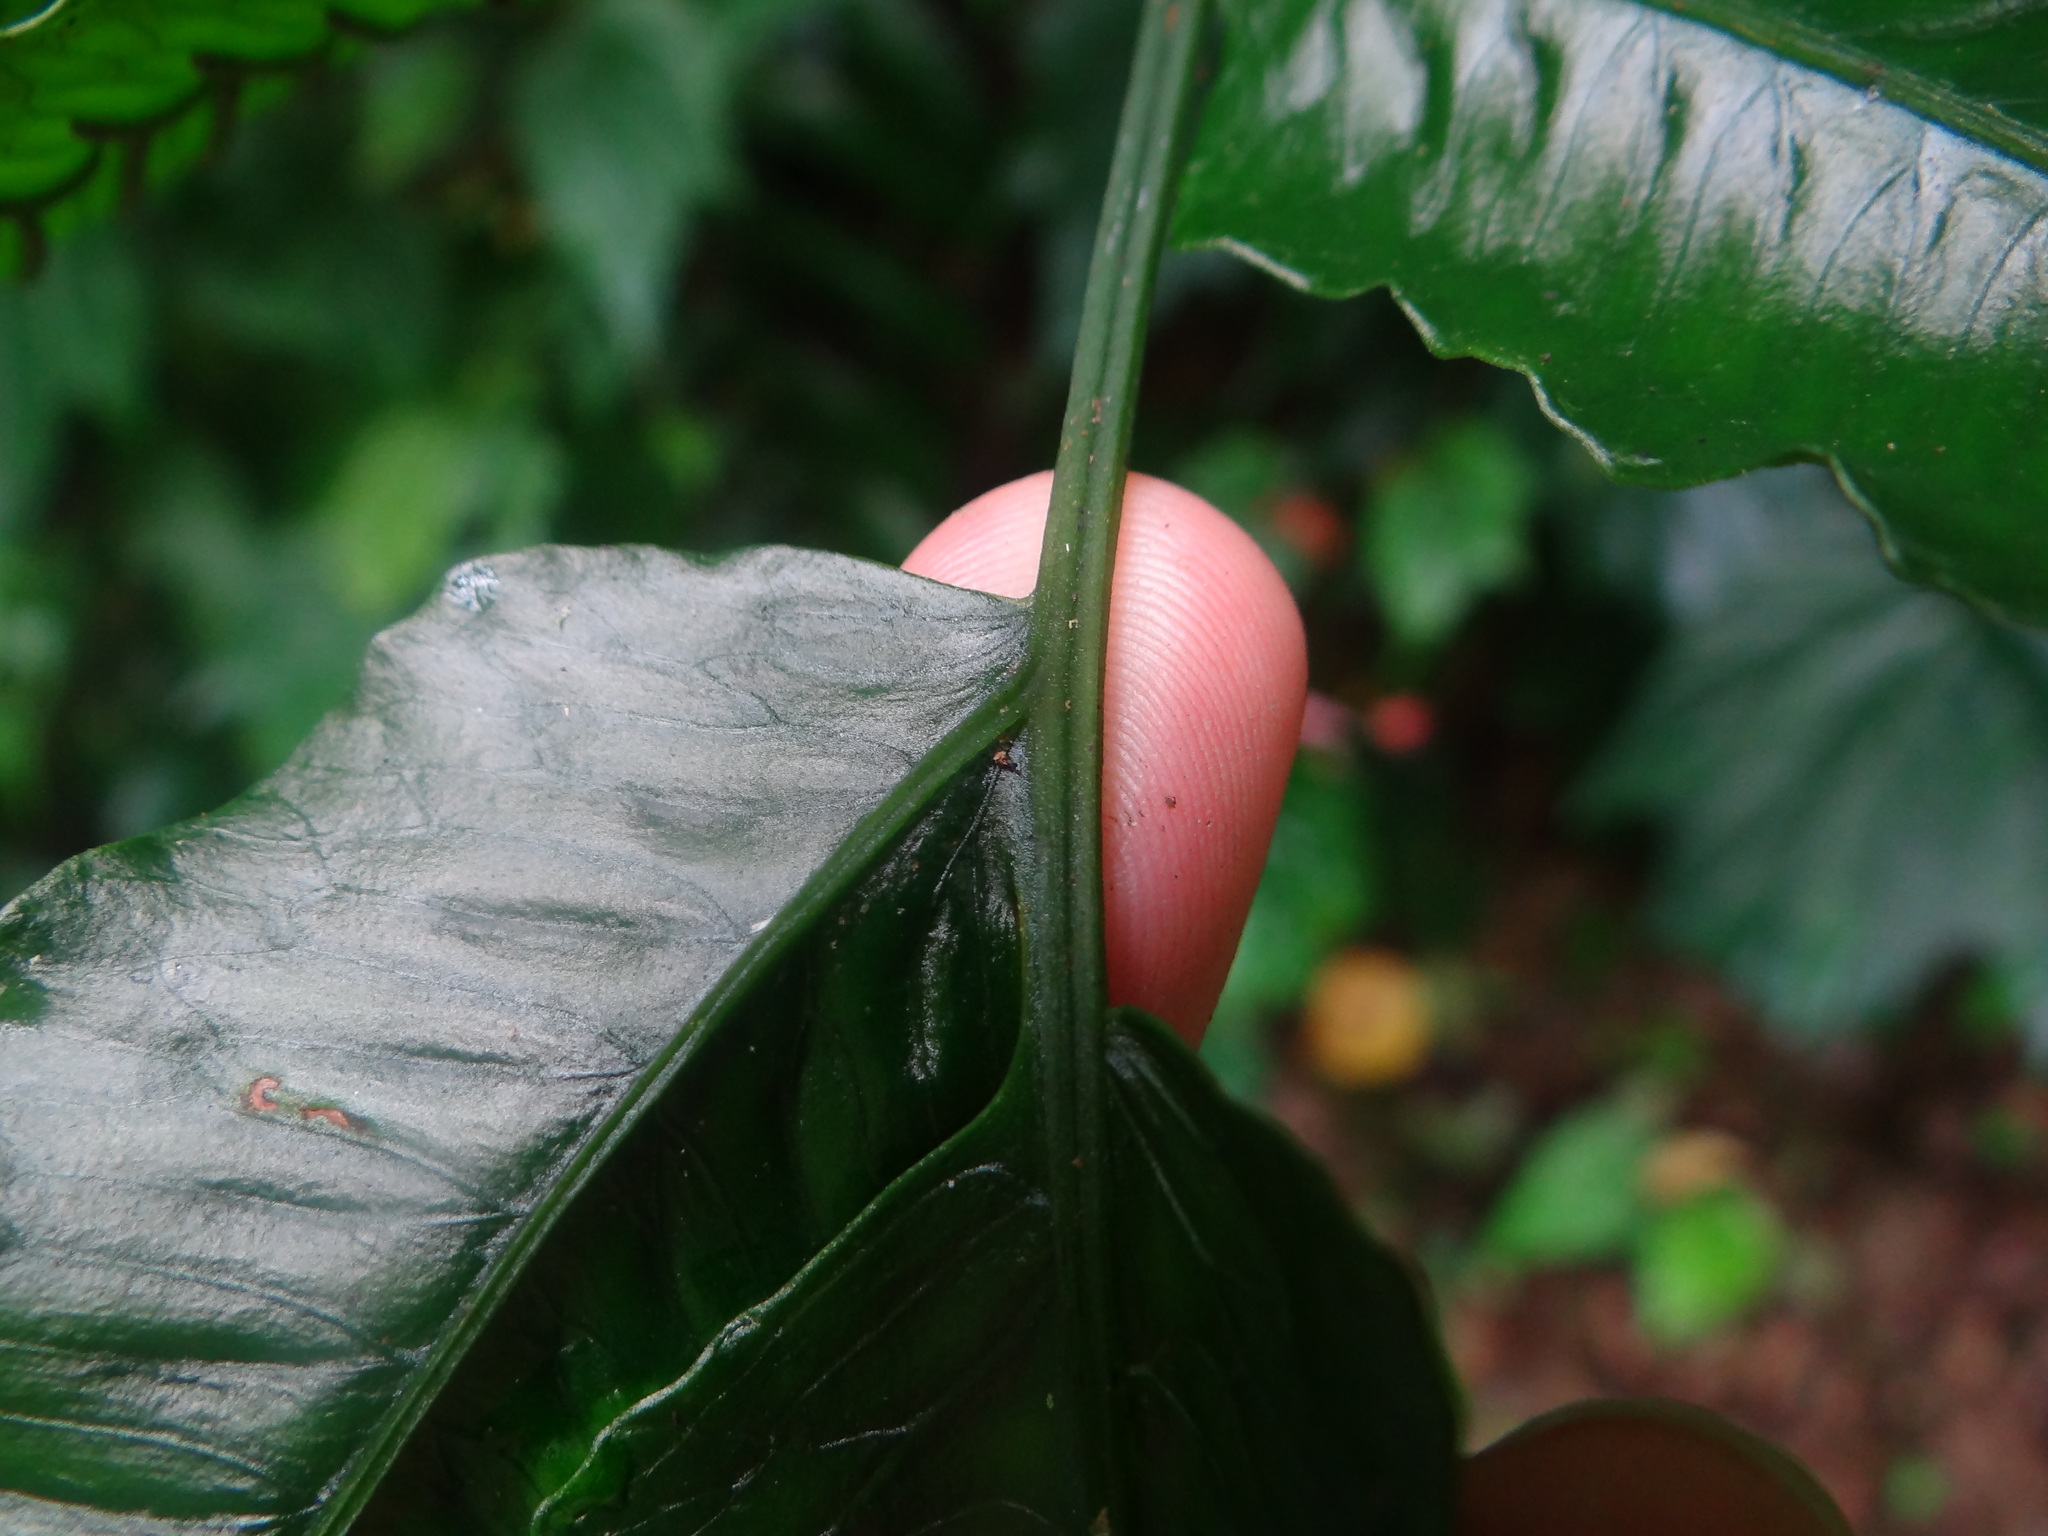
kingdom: Plantae
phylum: Tracheophyta
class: Polypodiopsida
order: Polypodiales
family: Diplaziopsidaceae
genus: Diplaziopsis
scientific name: Diplaziopsis javanica
